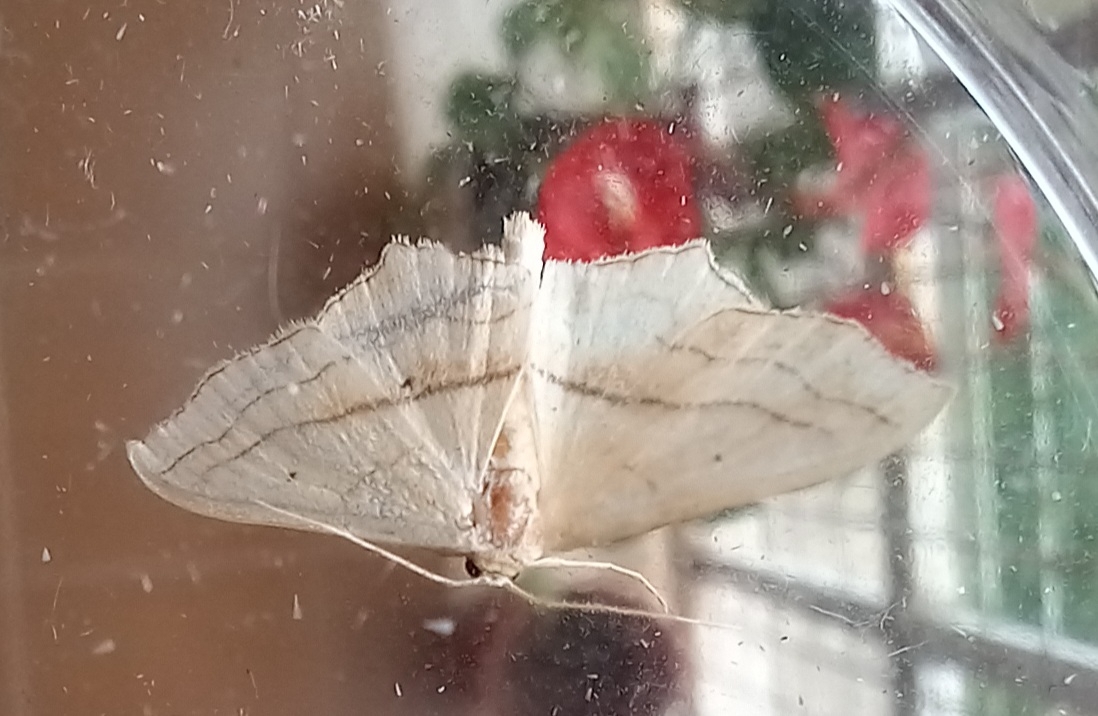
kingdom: Animalia
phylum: Arthropoda
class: Insecta
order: Lepidoptera
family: Geometridae
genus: Scopula
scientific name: Scopula imitaria
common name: Small blood-vein
